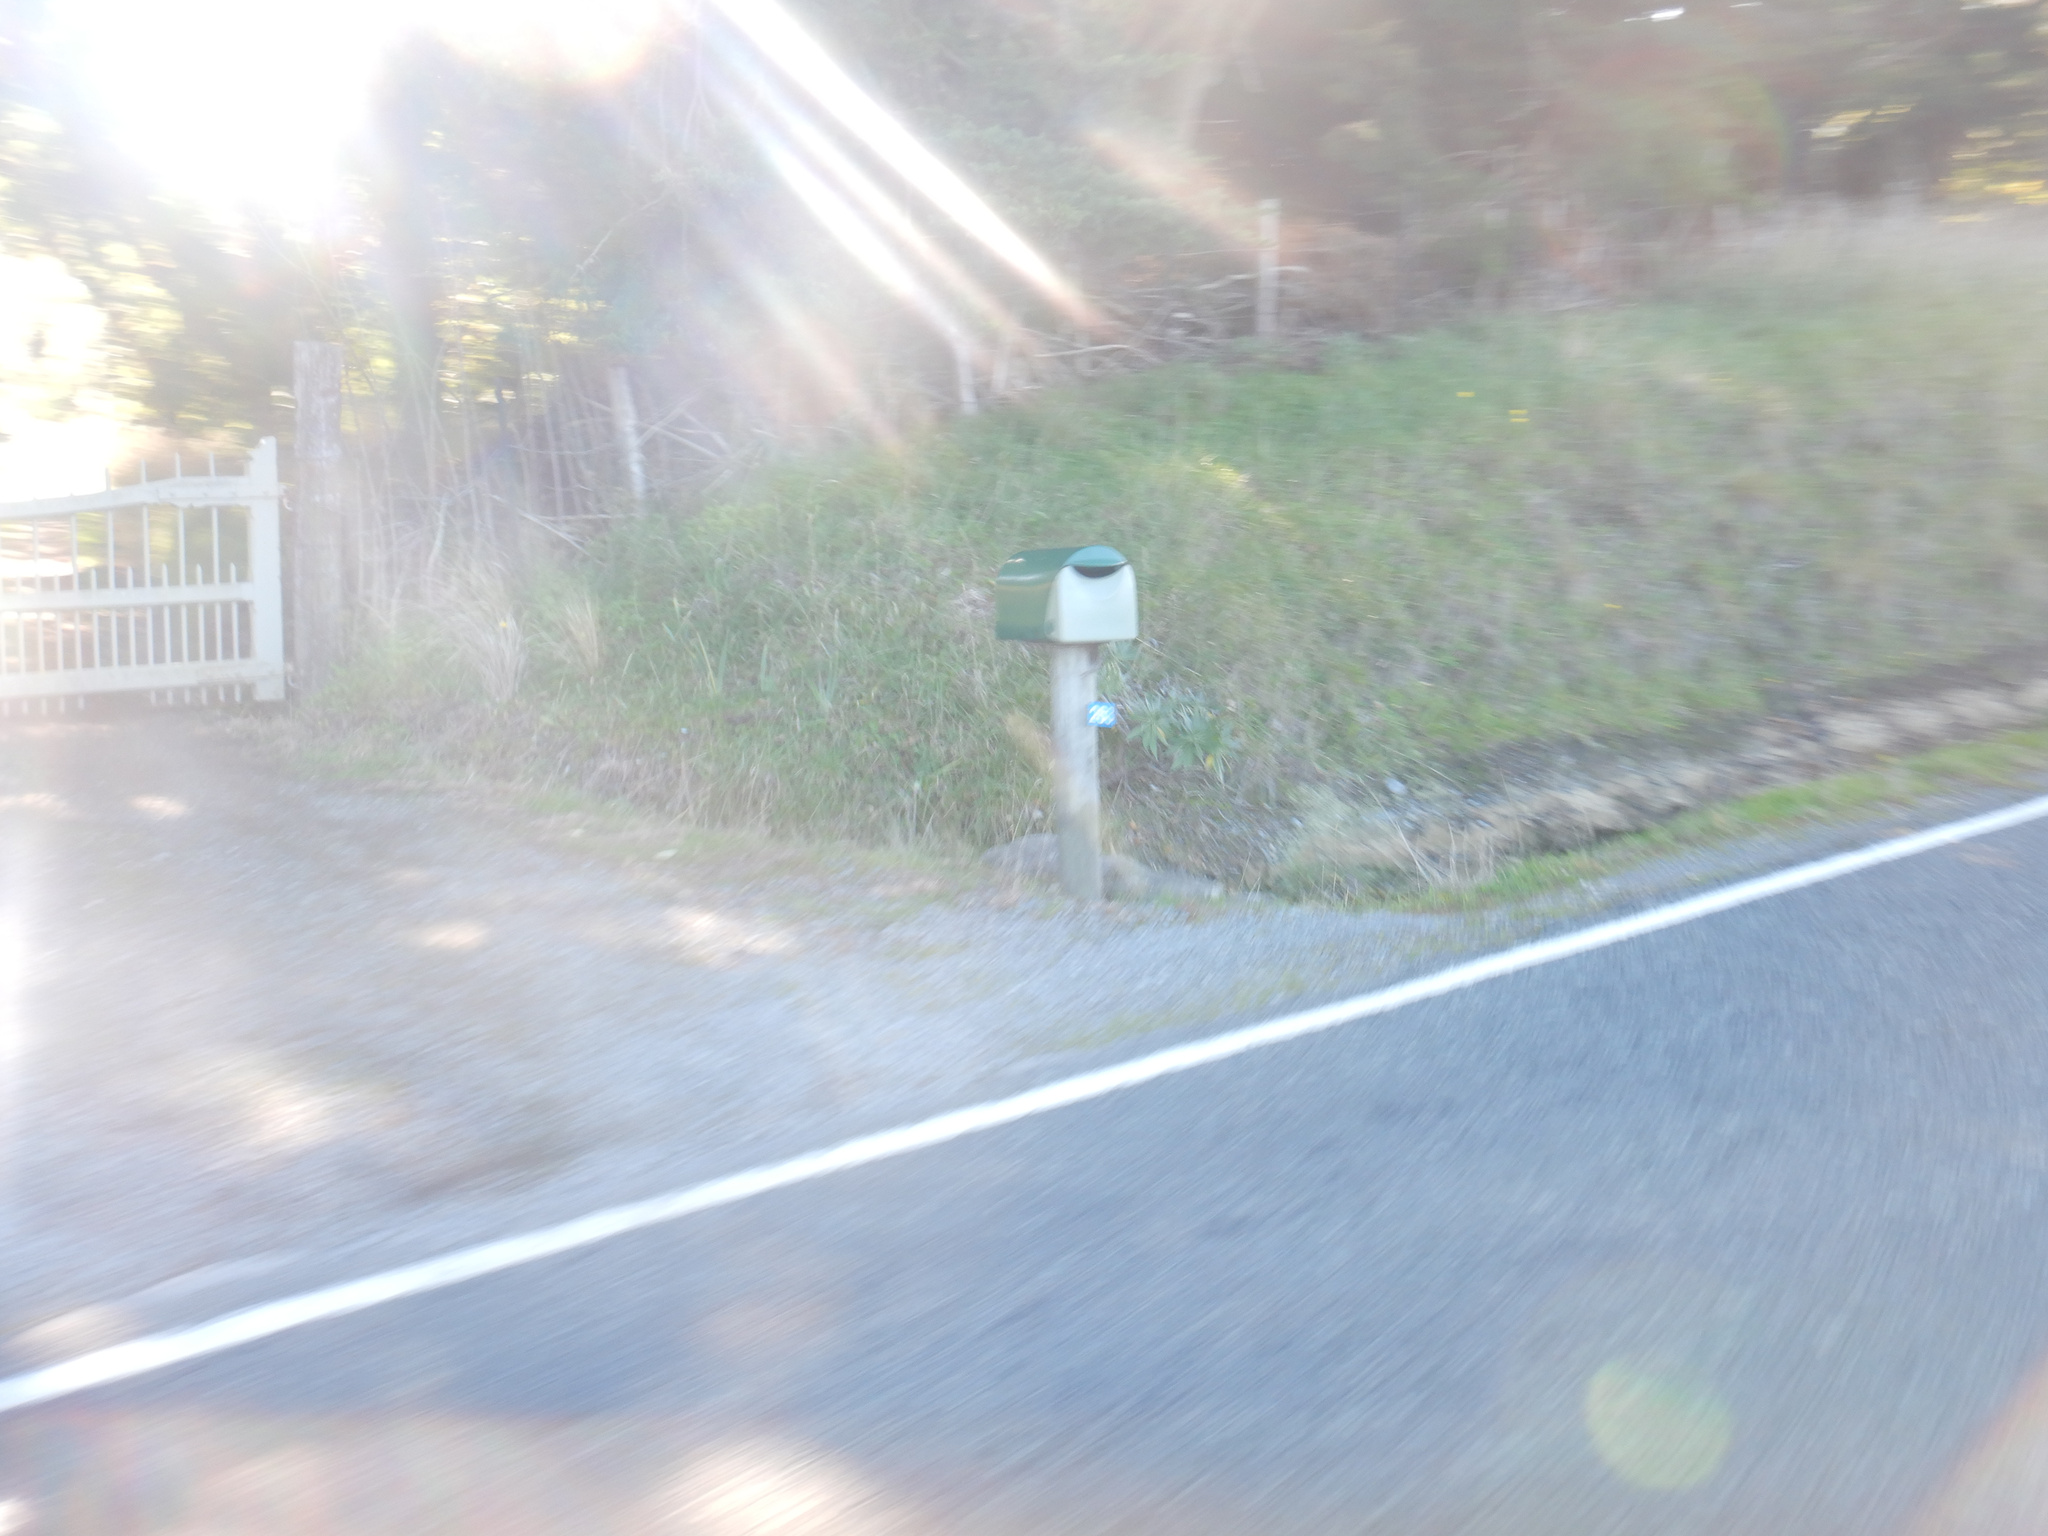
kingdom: Plantae
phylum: Tracheophyta
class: Magnoliopsida
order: Boraginales
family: Boraginaceae
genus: Echium
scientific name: Echium candicans
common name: Pride of madeira
